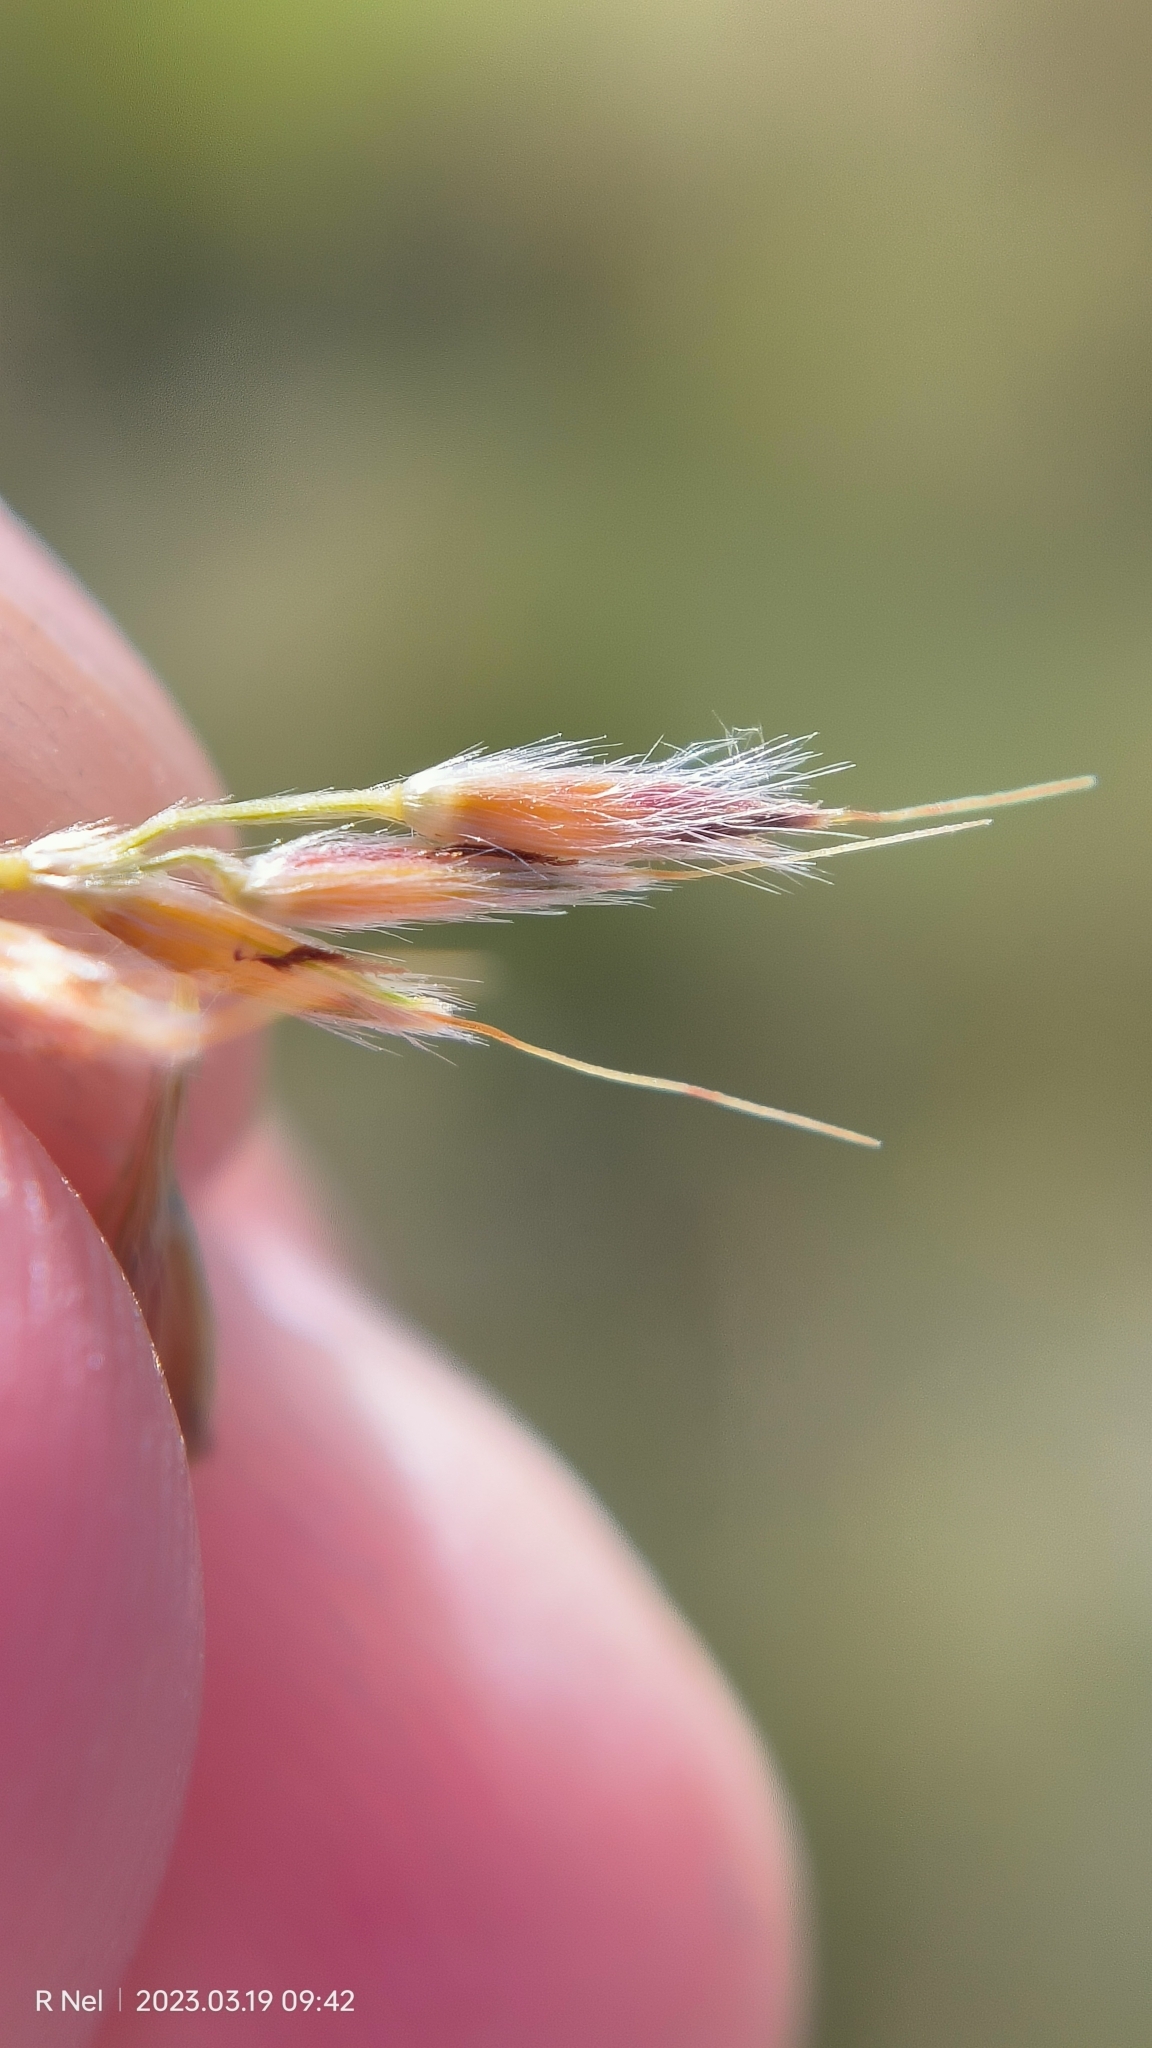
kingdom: Plantae
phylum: Tracheophyta
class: Liliopsida
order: Poales
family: Poaceae
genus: Miscanthus
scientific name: Miscanthus ecklonii
